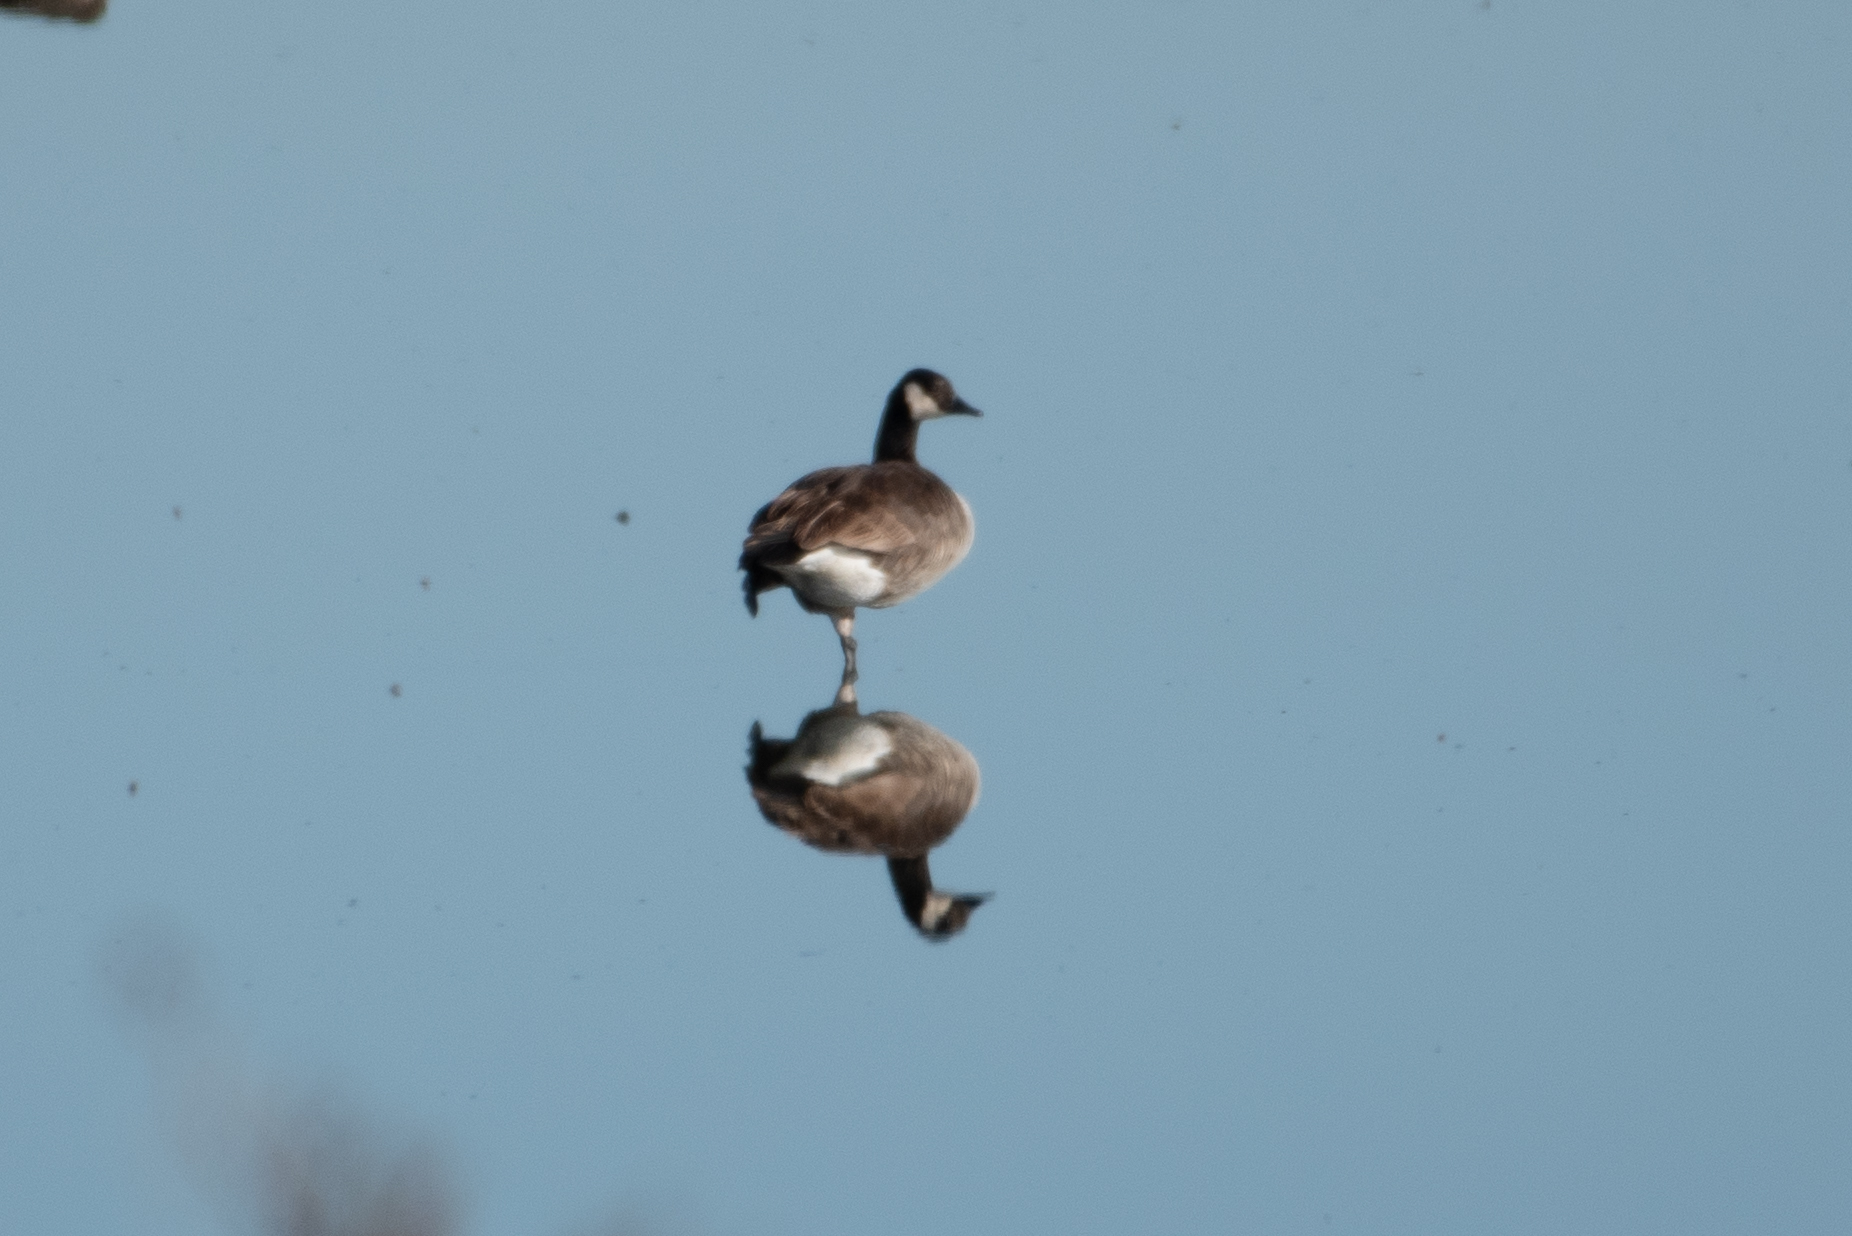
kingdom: Animalia
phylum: Chordata
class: Aves
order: Anseriformes
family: Anatidae
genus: Branta
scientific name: Branta canadensis
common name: Canada goose
